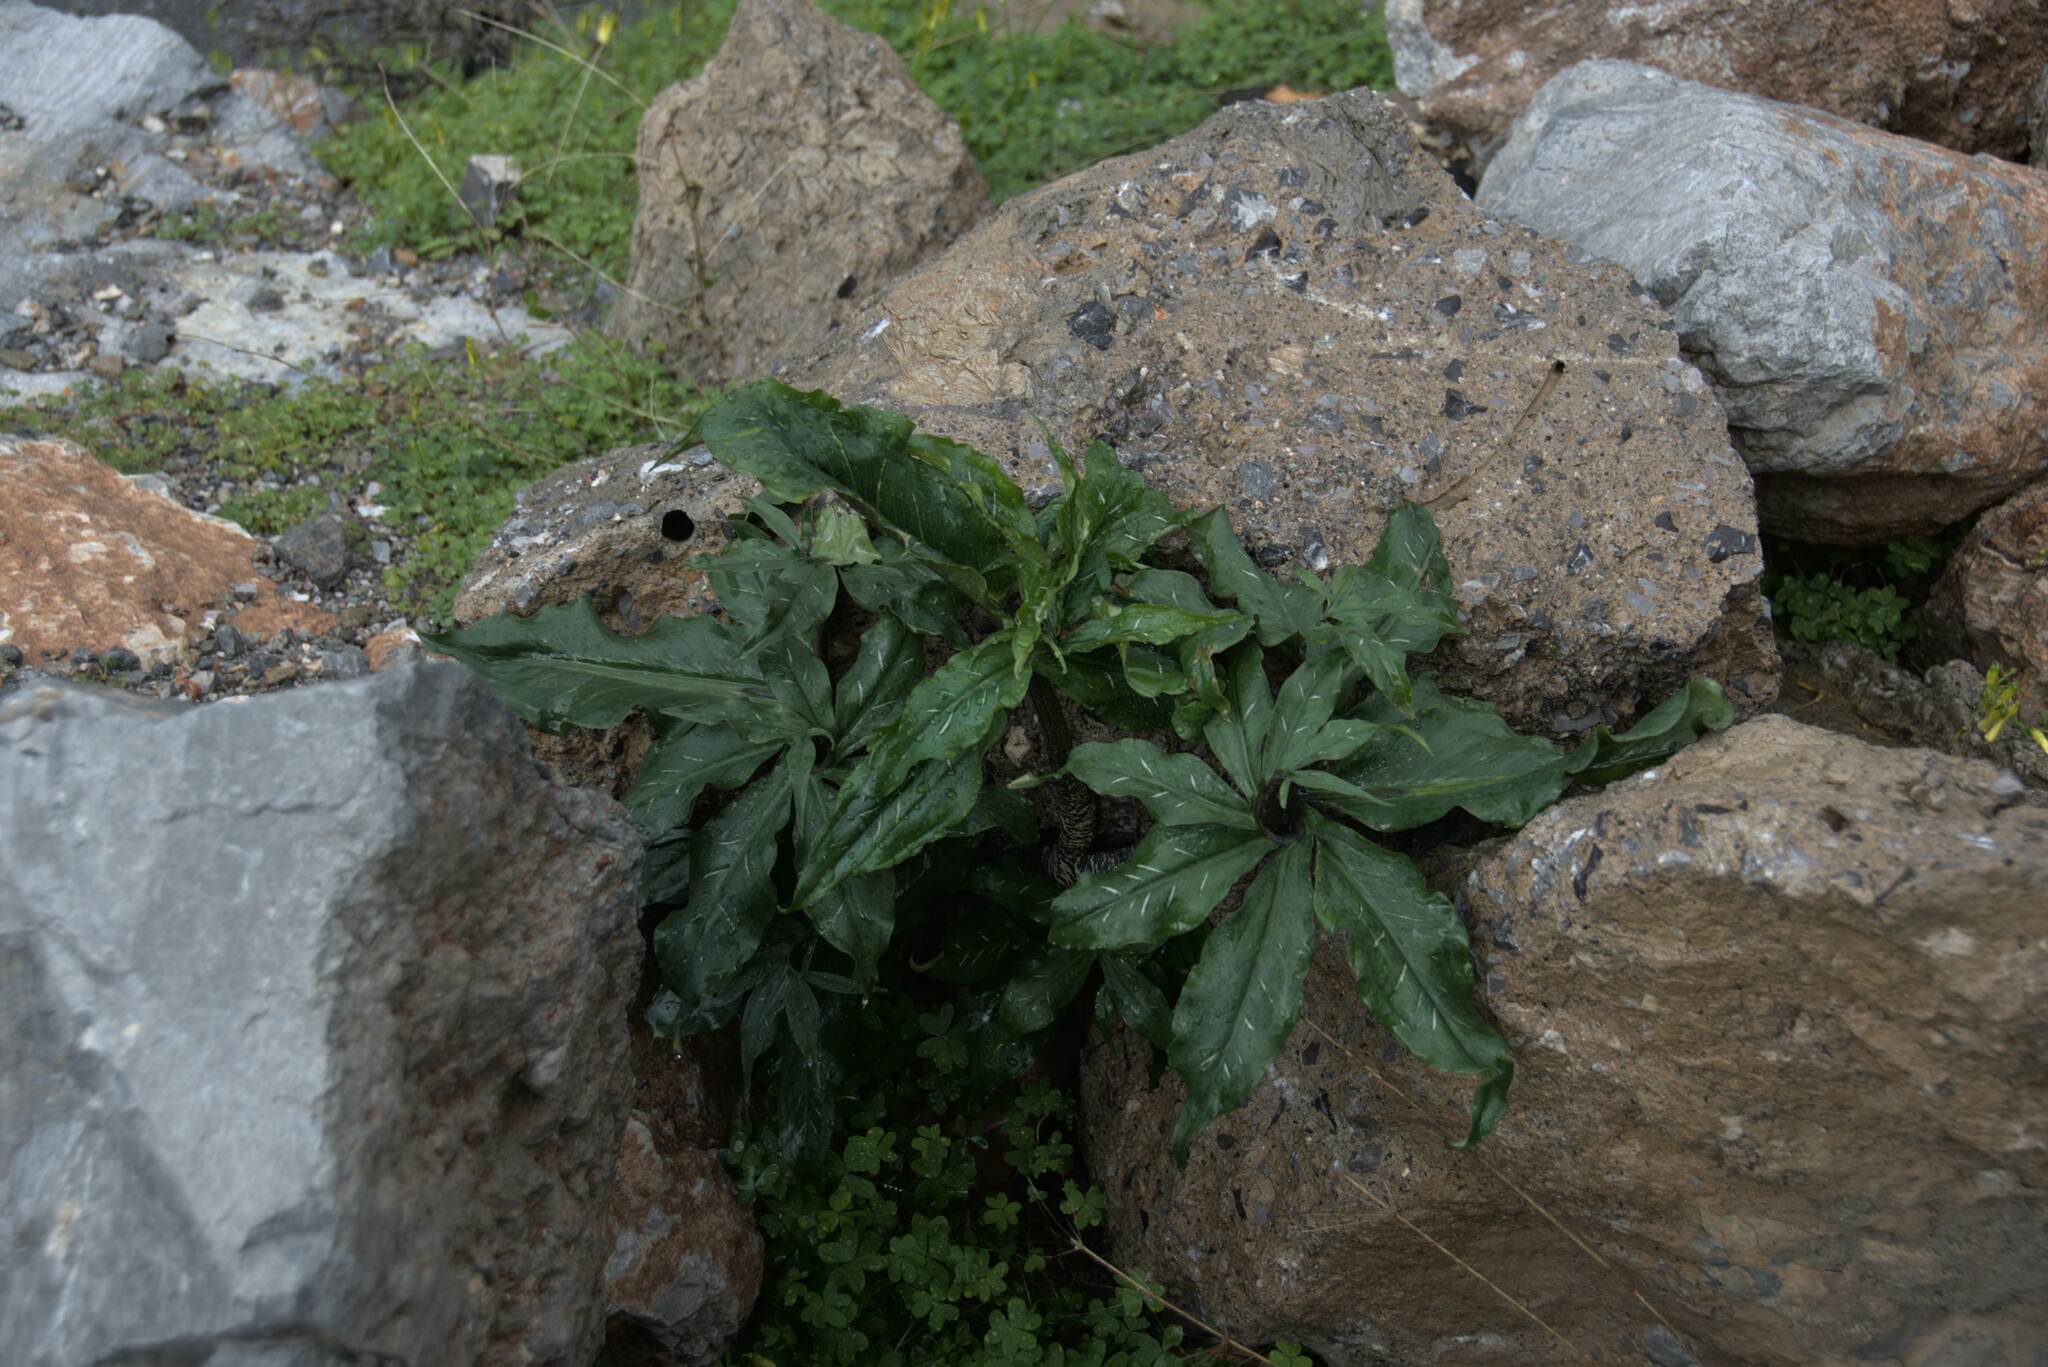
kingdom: Plantae
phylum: Tracheophyta
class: Liliopsida
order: Alismatales
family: Araceae
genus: Dracunculus
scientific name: Dracunculus vulgaris
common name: Dragon arum
